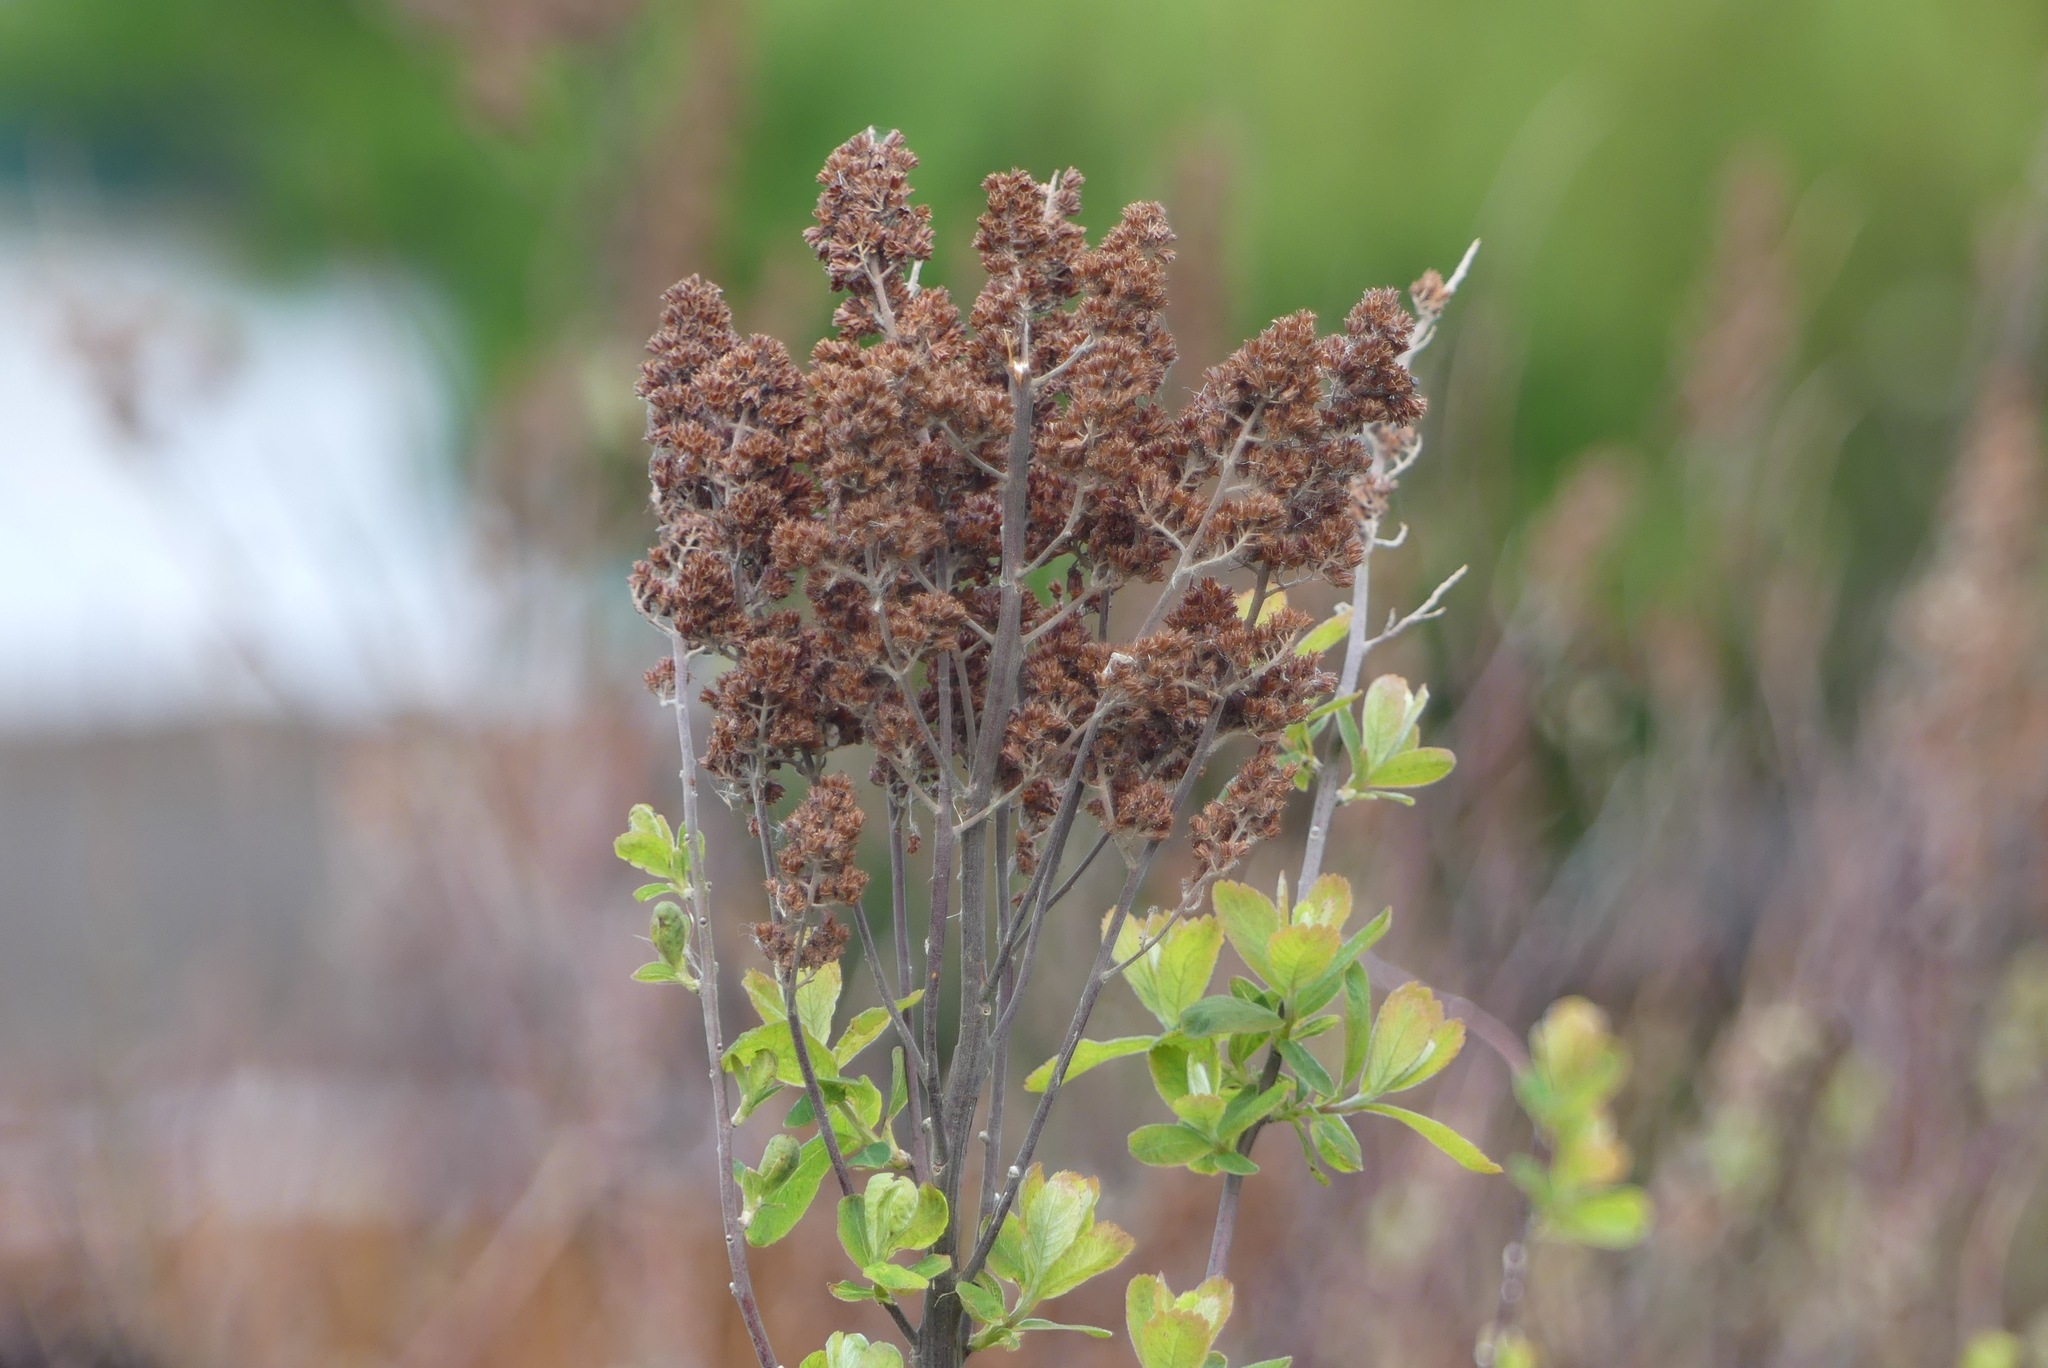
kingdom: Plantae
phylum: Tracheophyta
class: Magnoliopsida
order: Rosales
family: Rosaceae
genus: Spiraea
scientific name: Spiraea douglasii
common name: Steeplebush
